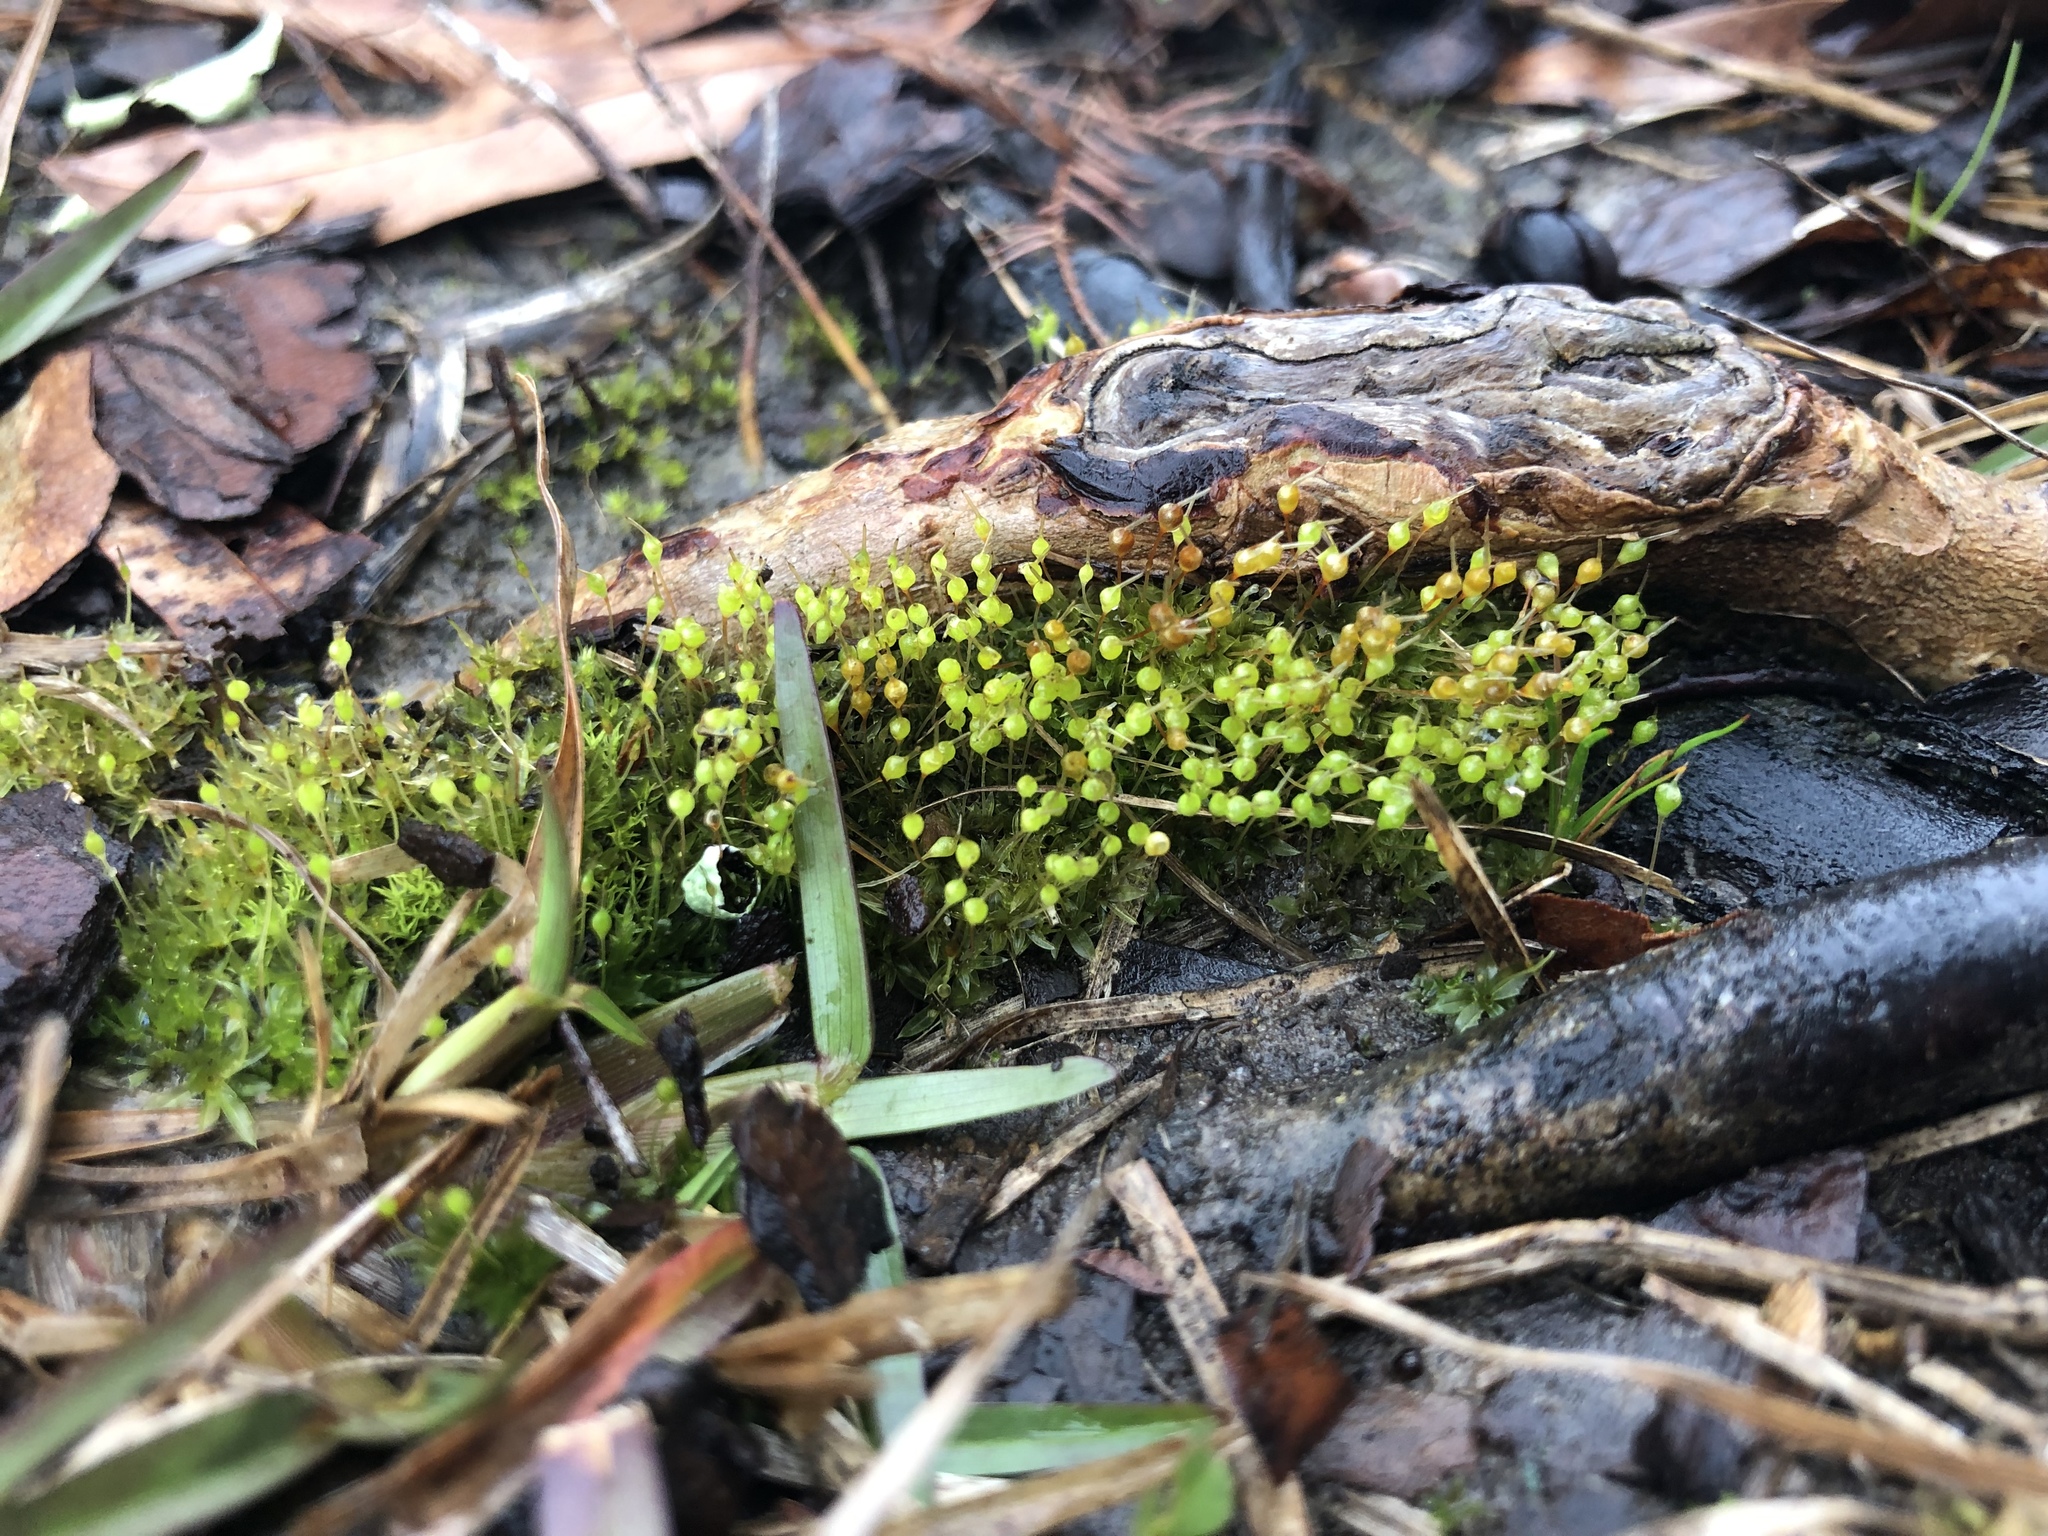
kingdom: Plantae
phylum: Bryophyta
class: Bryopsida
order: Funariales
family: Funariaceae
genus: Physcomitrium
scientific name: Physcomitrium pyriforme
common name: Common bladder-moss
